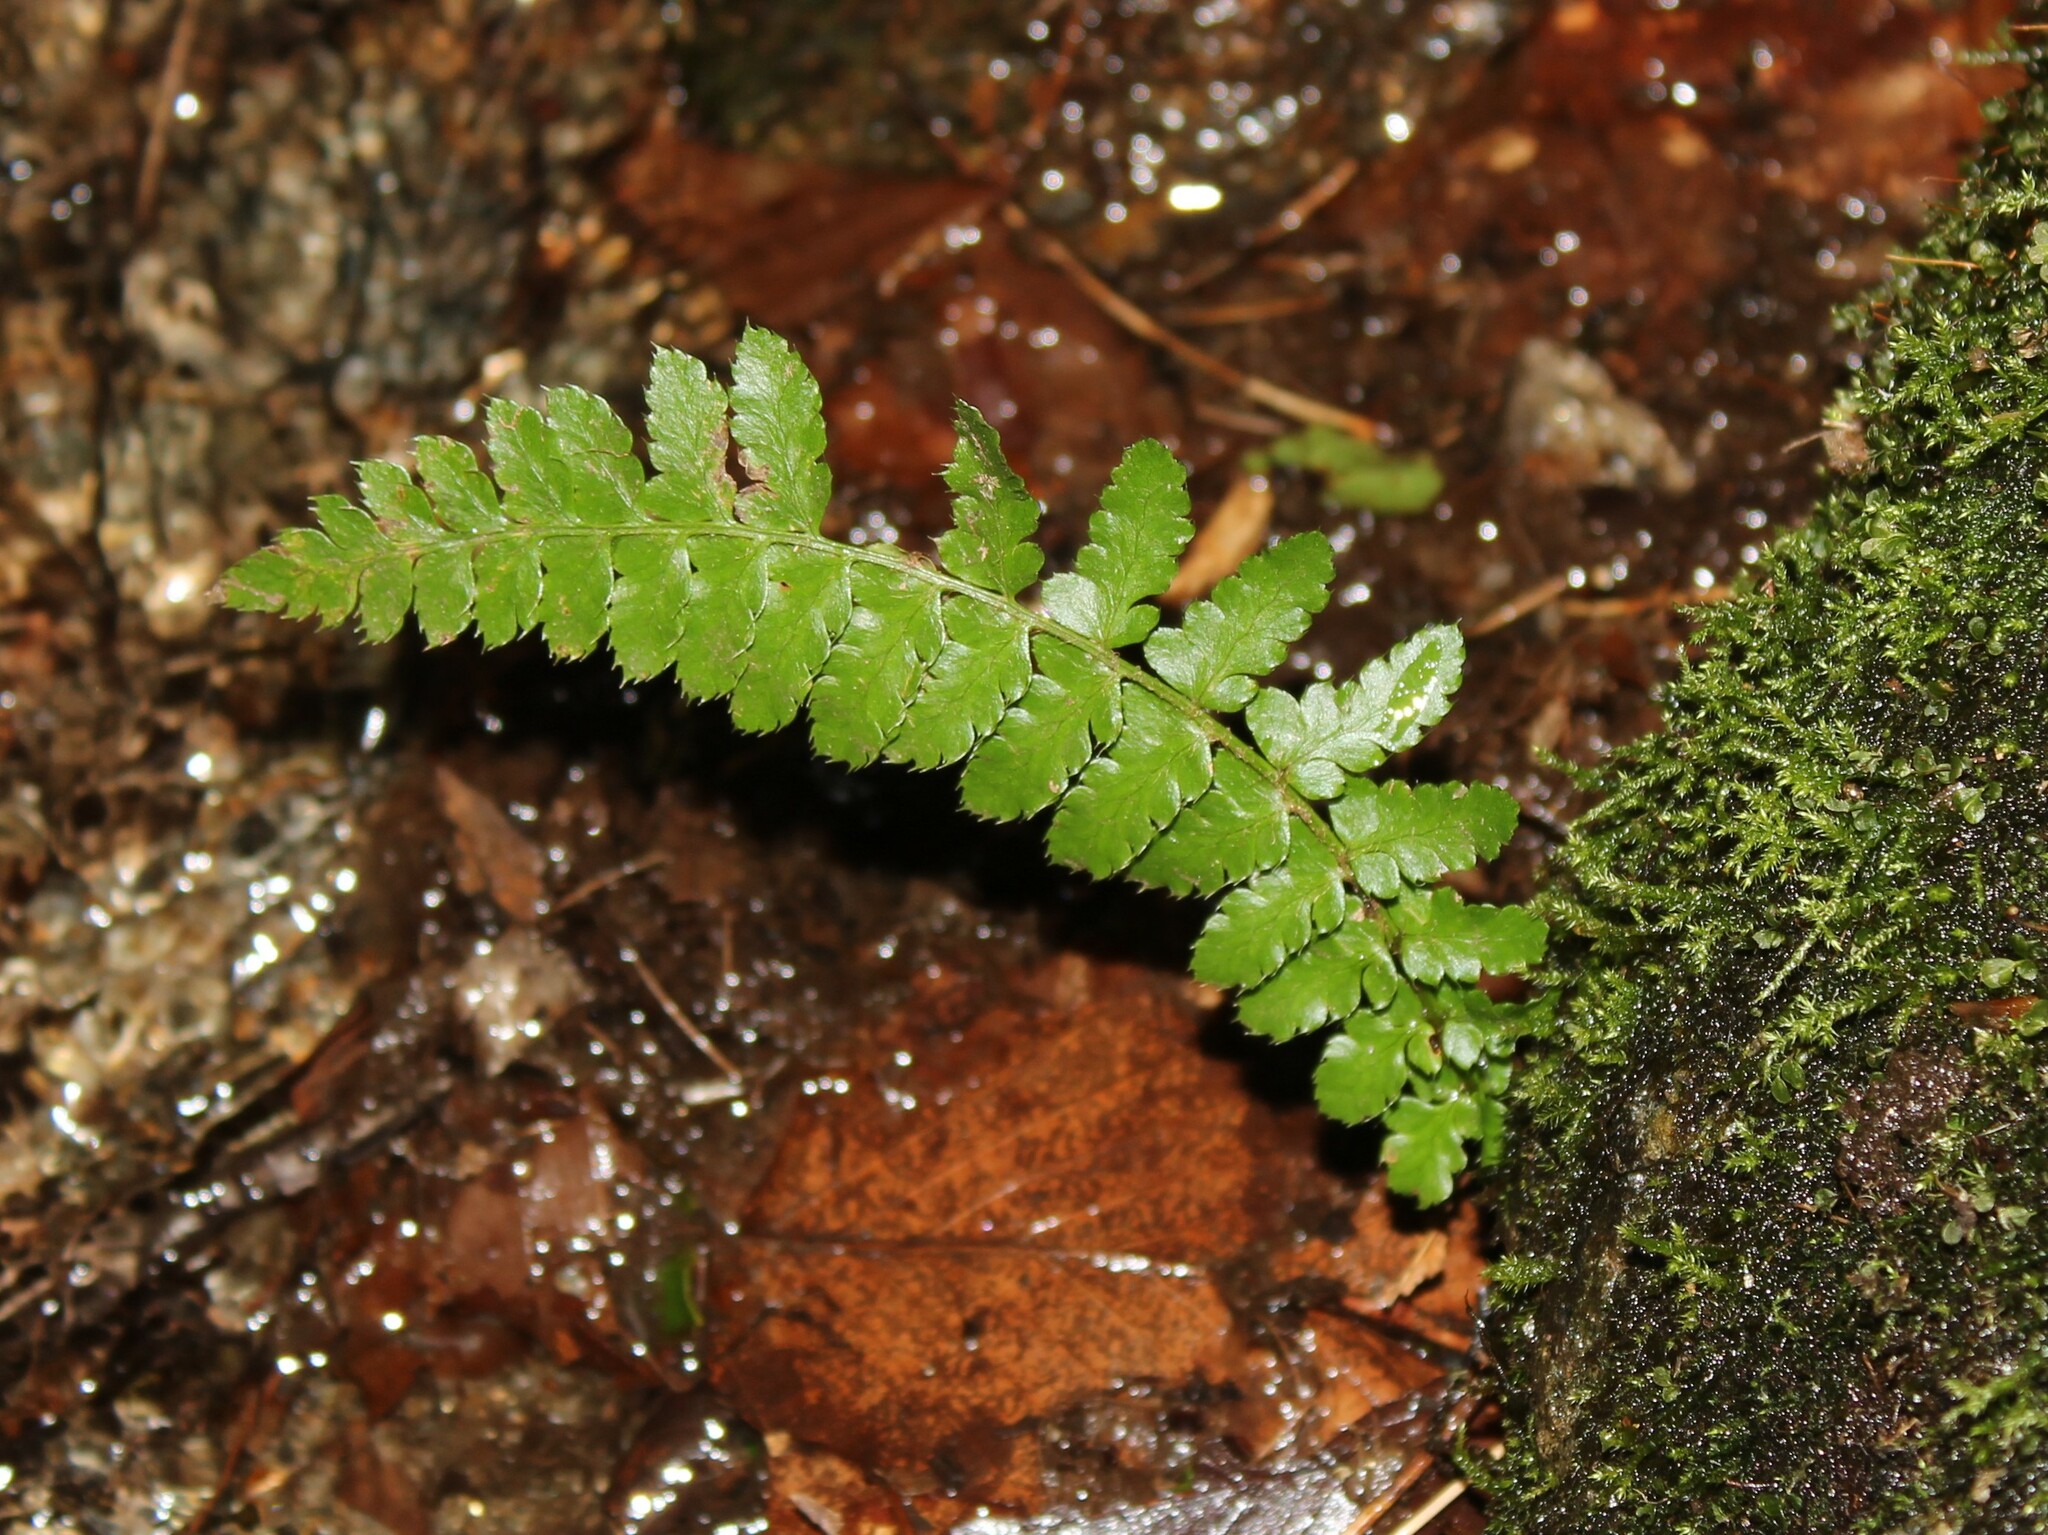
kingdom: Plantae
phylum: Tracheophyta
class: Polypodiopsida
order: Polypodiales
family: Dryopteridaceae
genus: Polystichum
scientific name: Polystichum braunii
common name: Braun's holly fern
